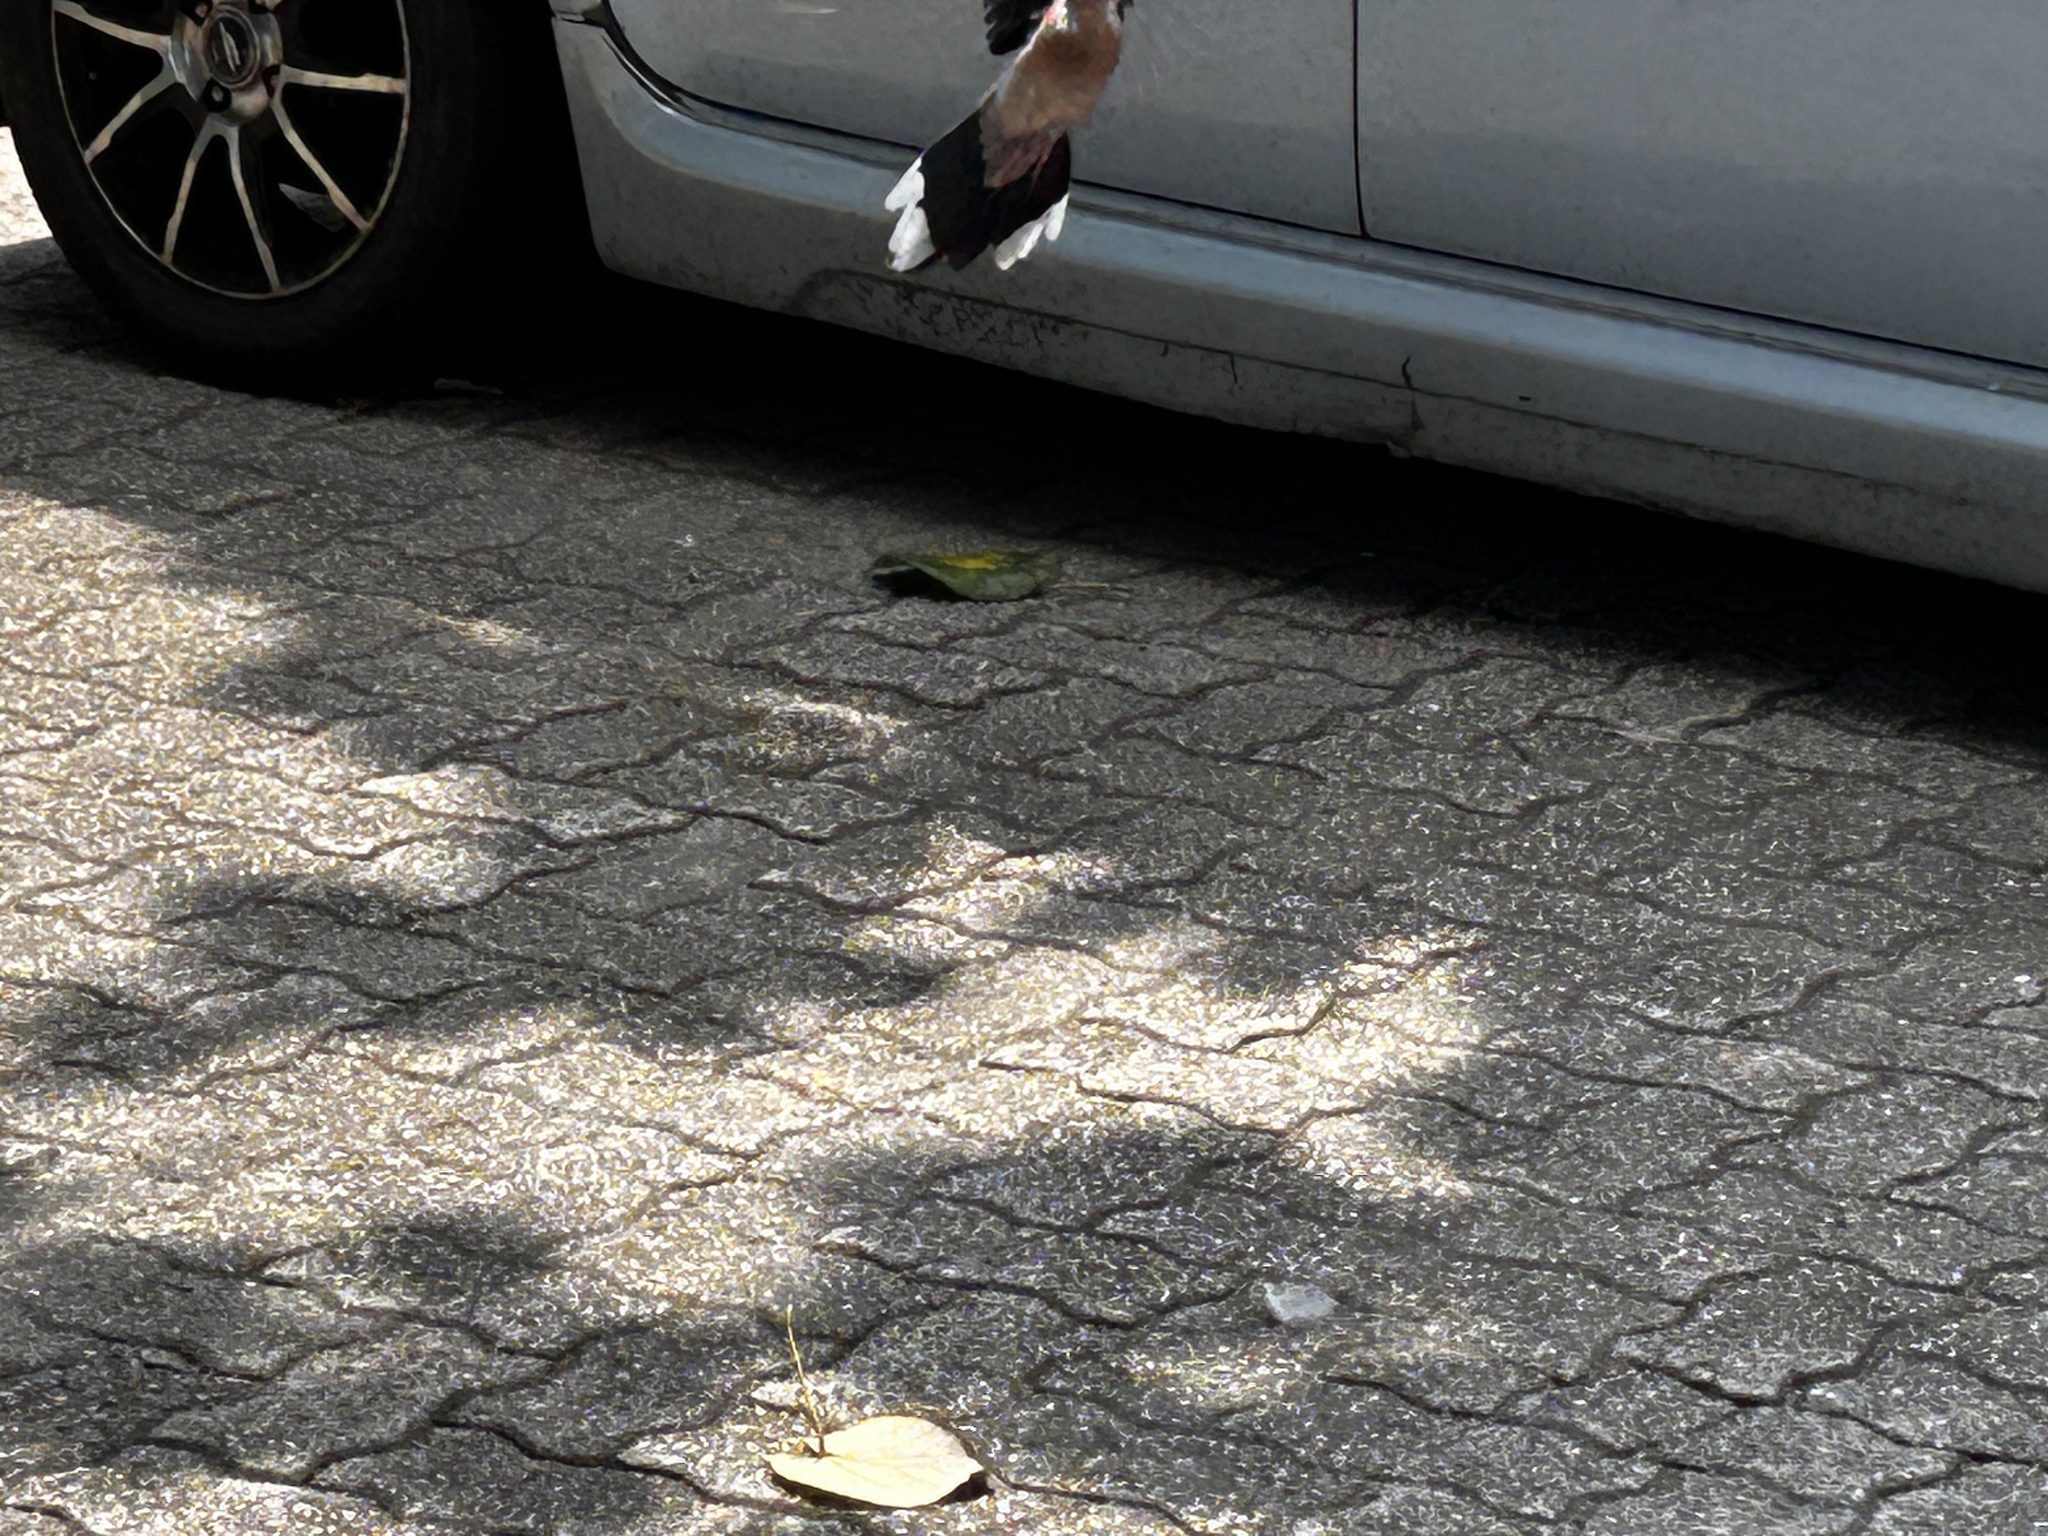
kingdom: Animalia
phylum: Chordata
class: Aves
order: Columbiformes
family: Columbidae
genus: Spilopelia
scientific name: Spilopelia chinensis
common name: Spotted dove
